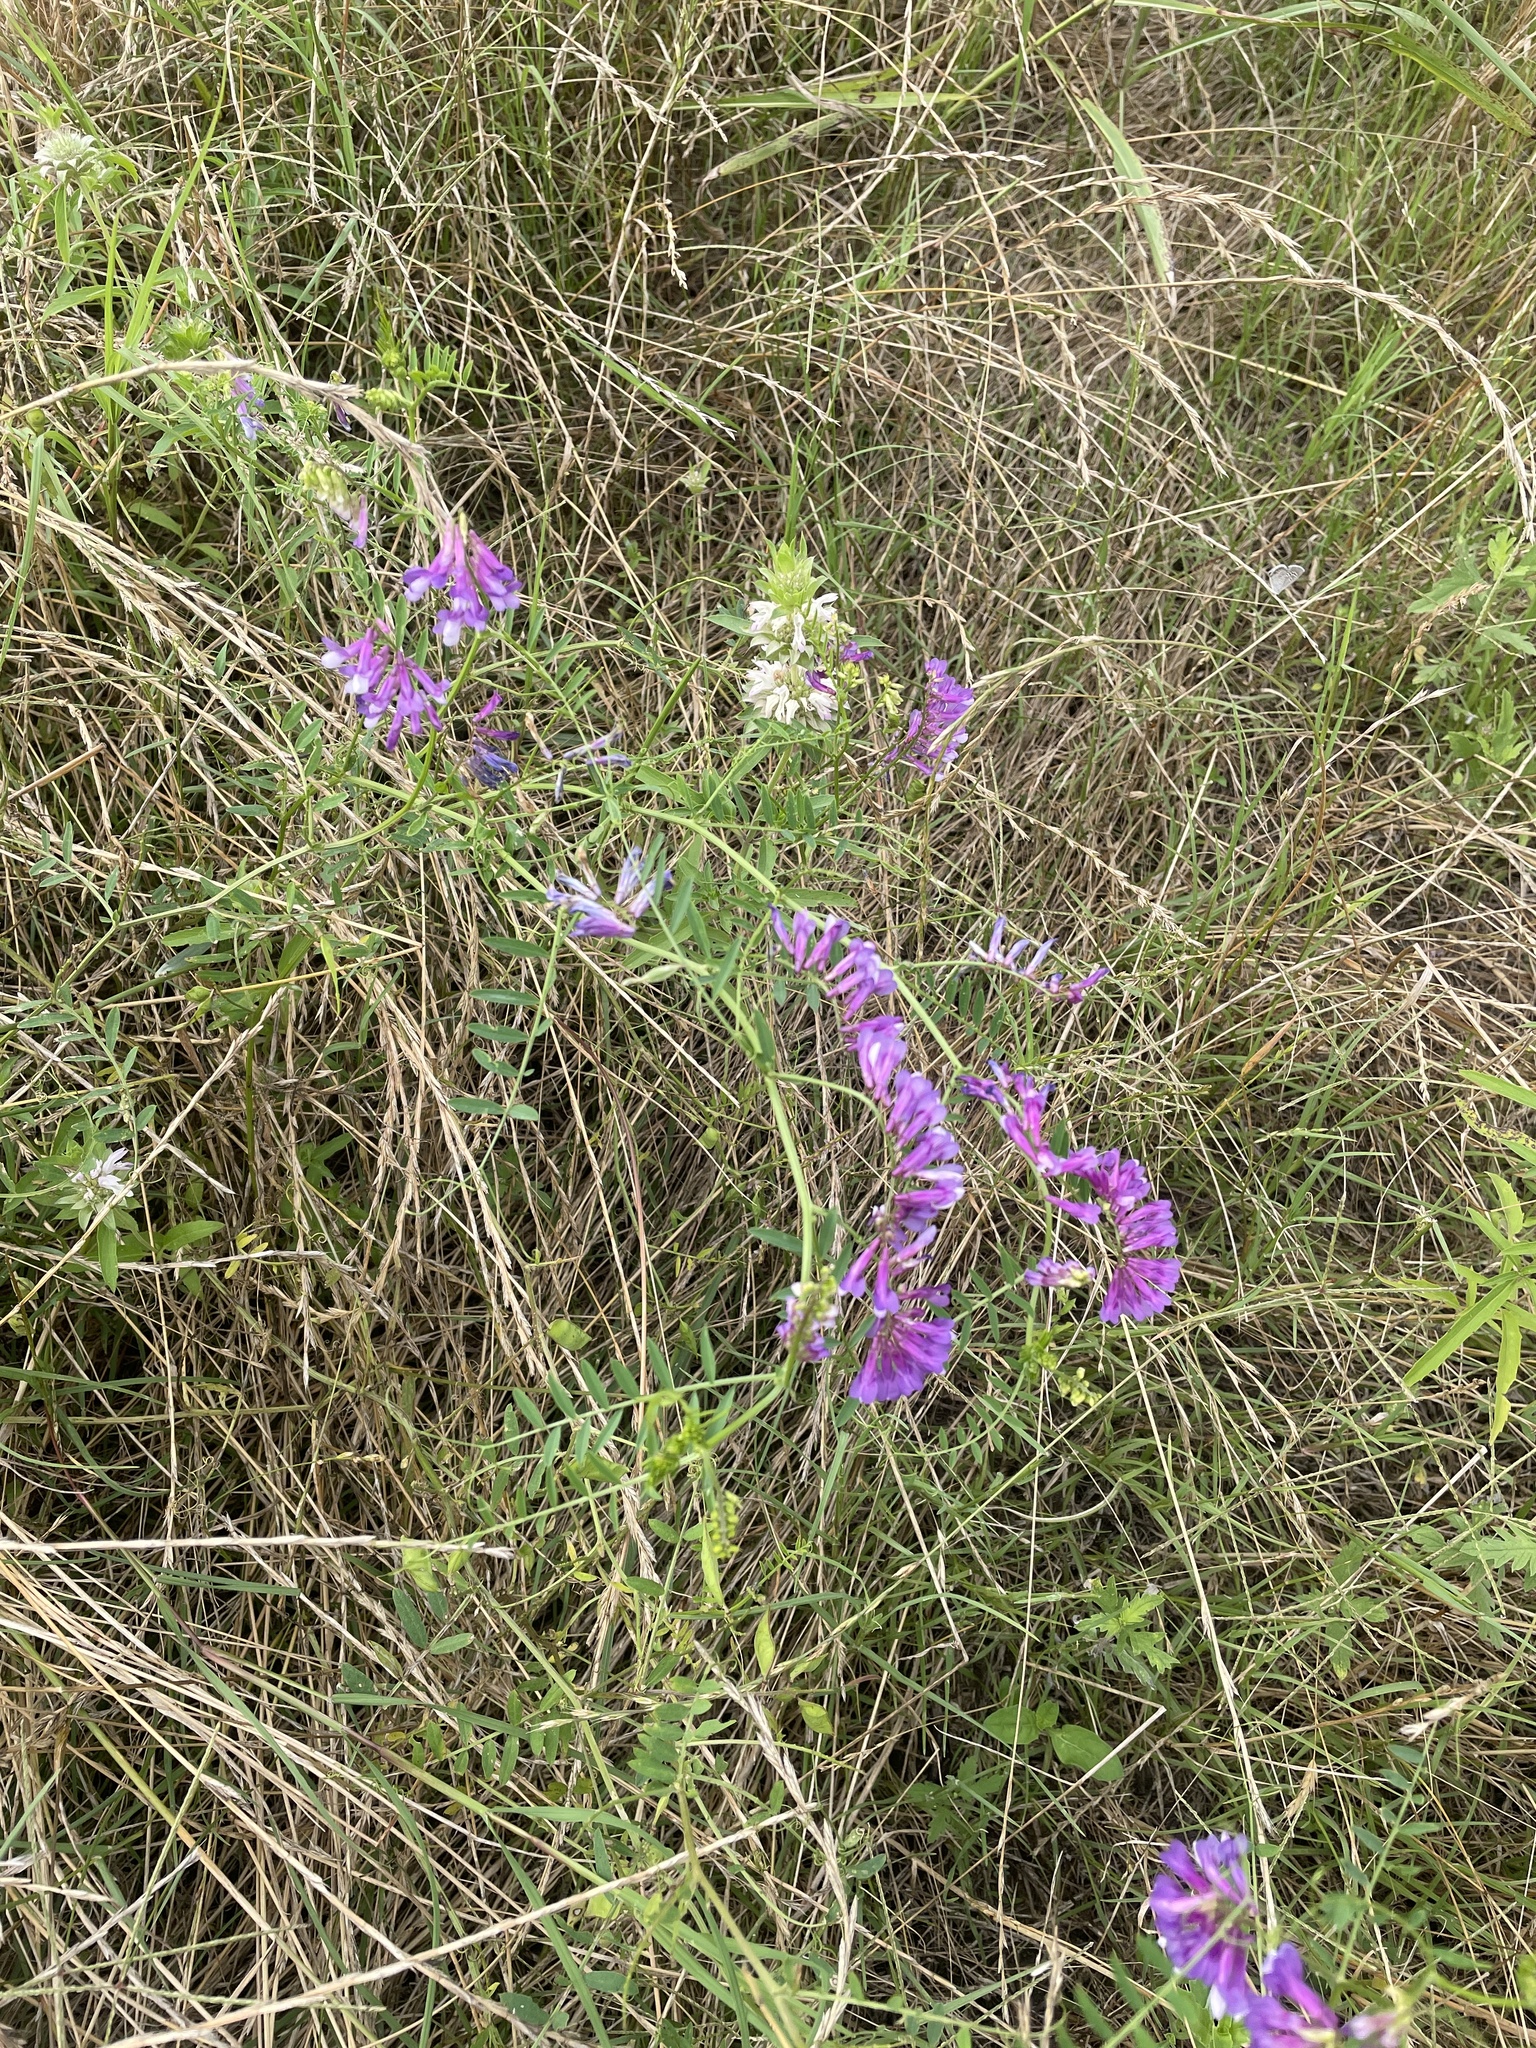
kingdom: Plantae
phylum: Tracheophyta
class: Magnoliopsida
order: Fabales
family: Fabaceae
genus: Vicia
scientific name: Vicia villosa
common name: Fodder vetch
